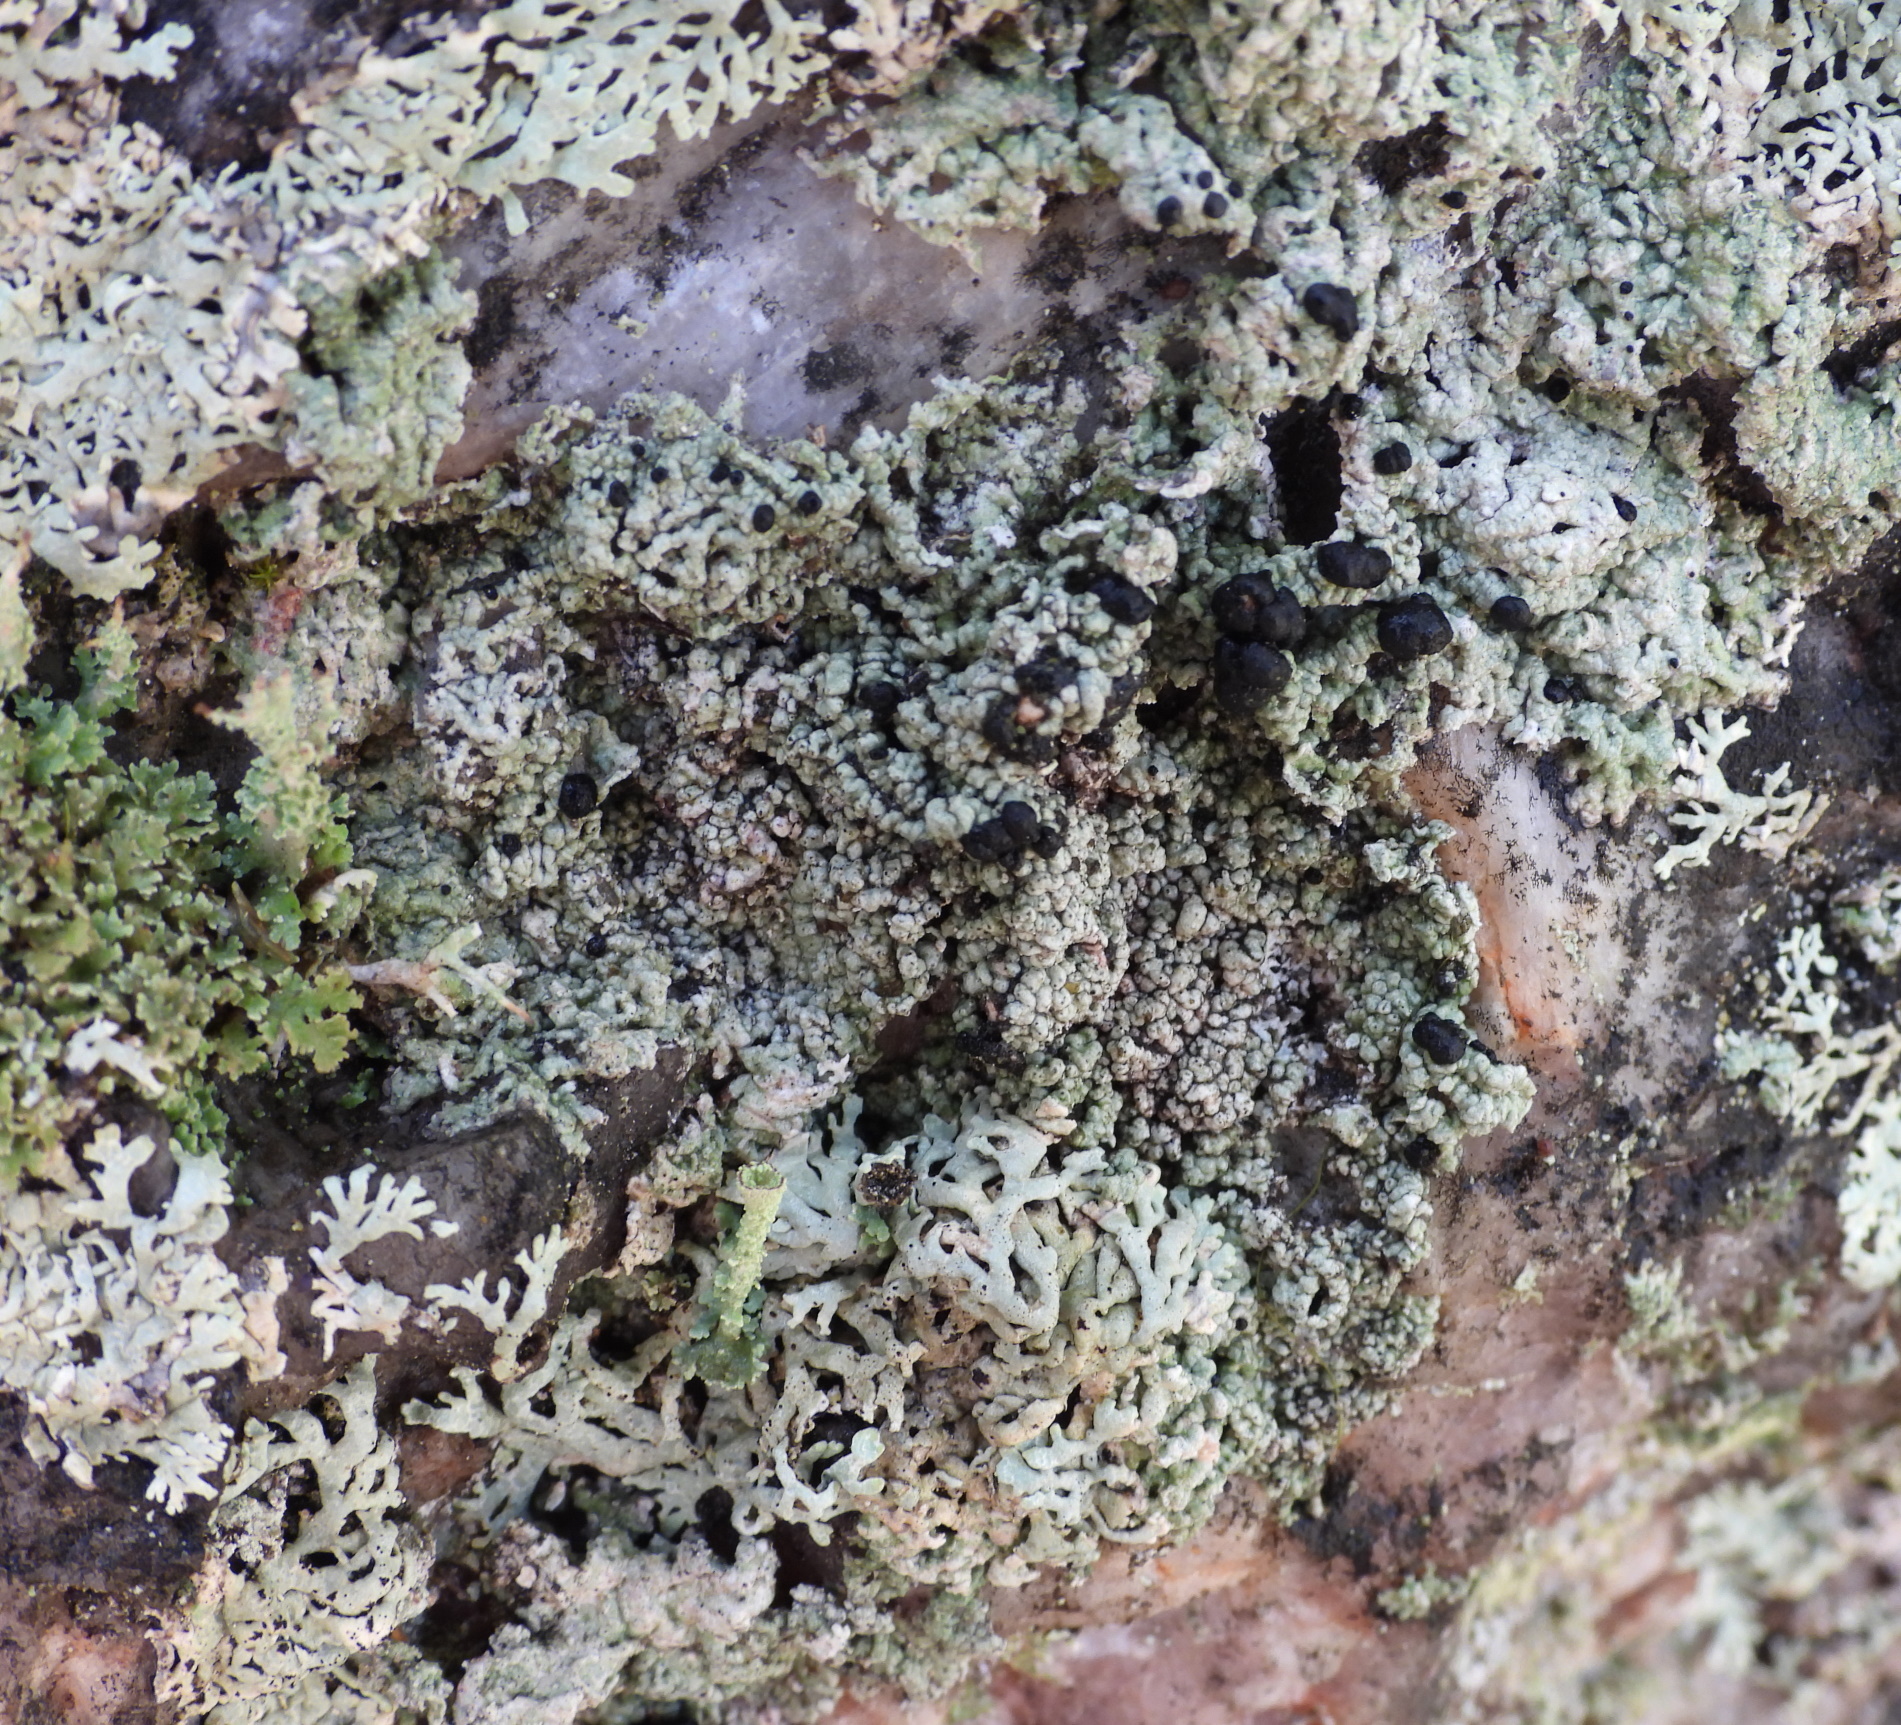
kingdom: Fungi
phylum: Ascomycota
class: Lecanoromycetes
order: Lecanorales
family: Tephromelataceae
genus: Mycoblastus
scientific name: Mycoblastus sanguinarius
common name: Bloody-heart lichen
